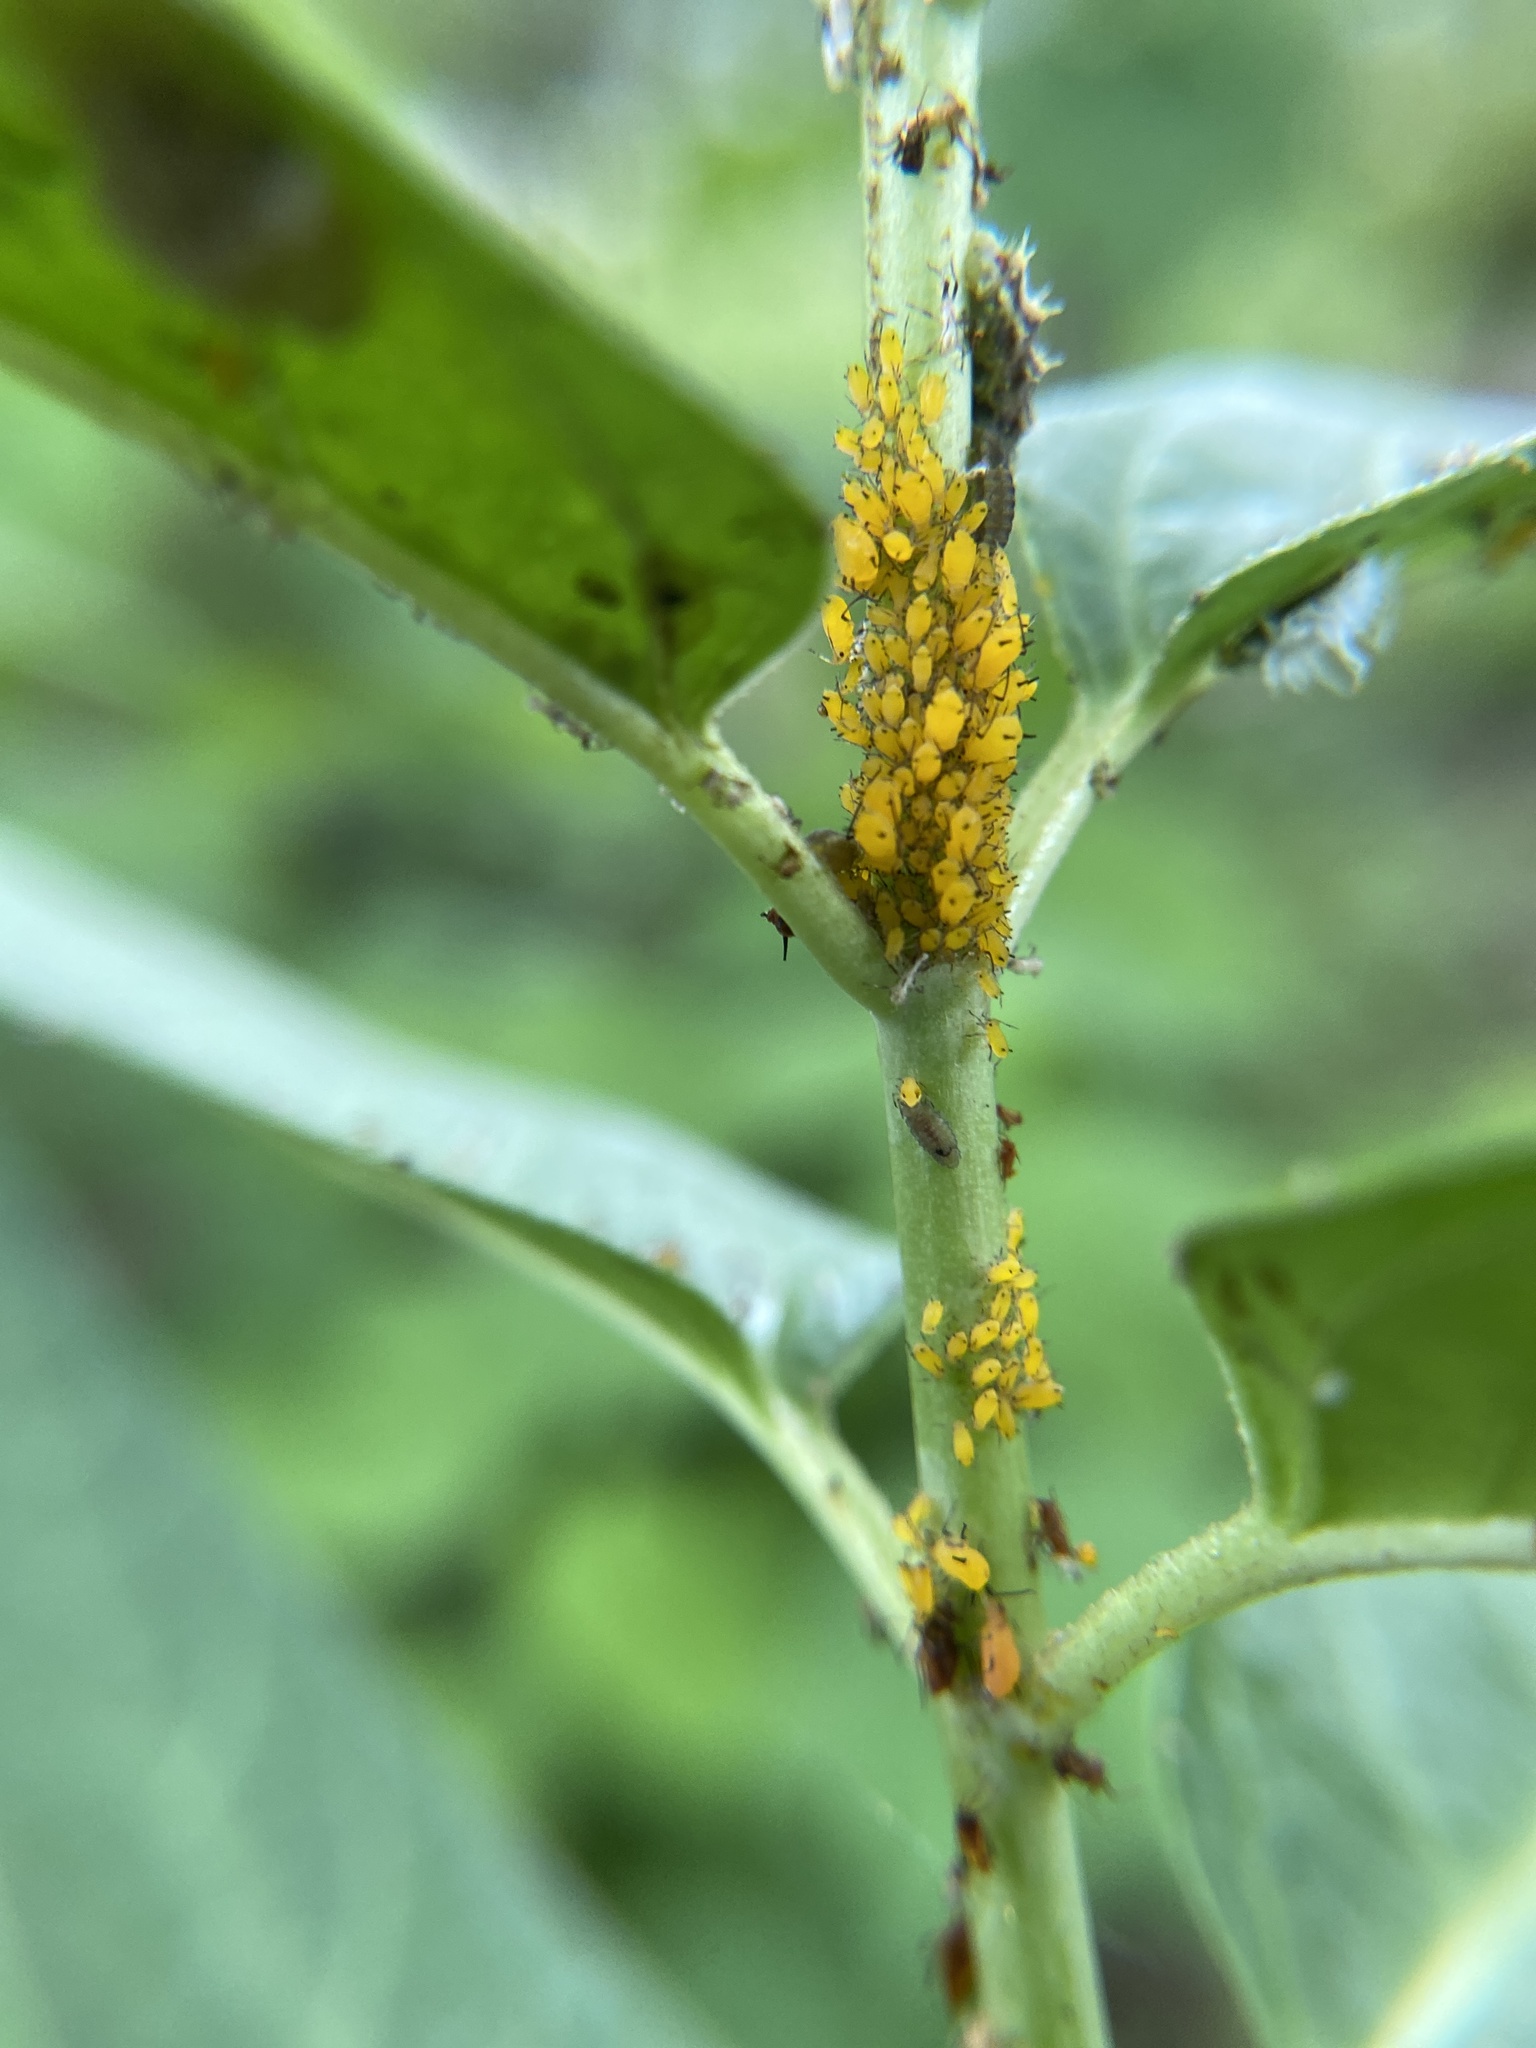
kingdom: Animalia
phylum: Arthropoda
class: Insecta
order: Hemiptera
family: Aphididae
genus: Aphis
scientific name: Aphis nerii
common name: Oleander aphid
